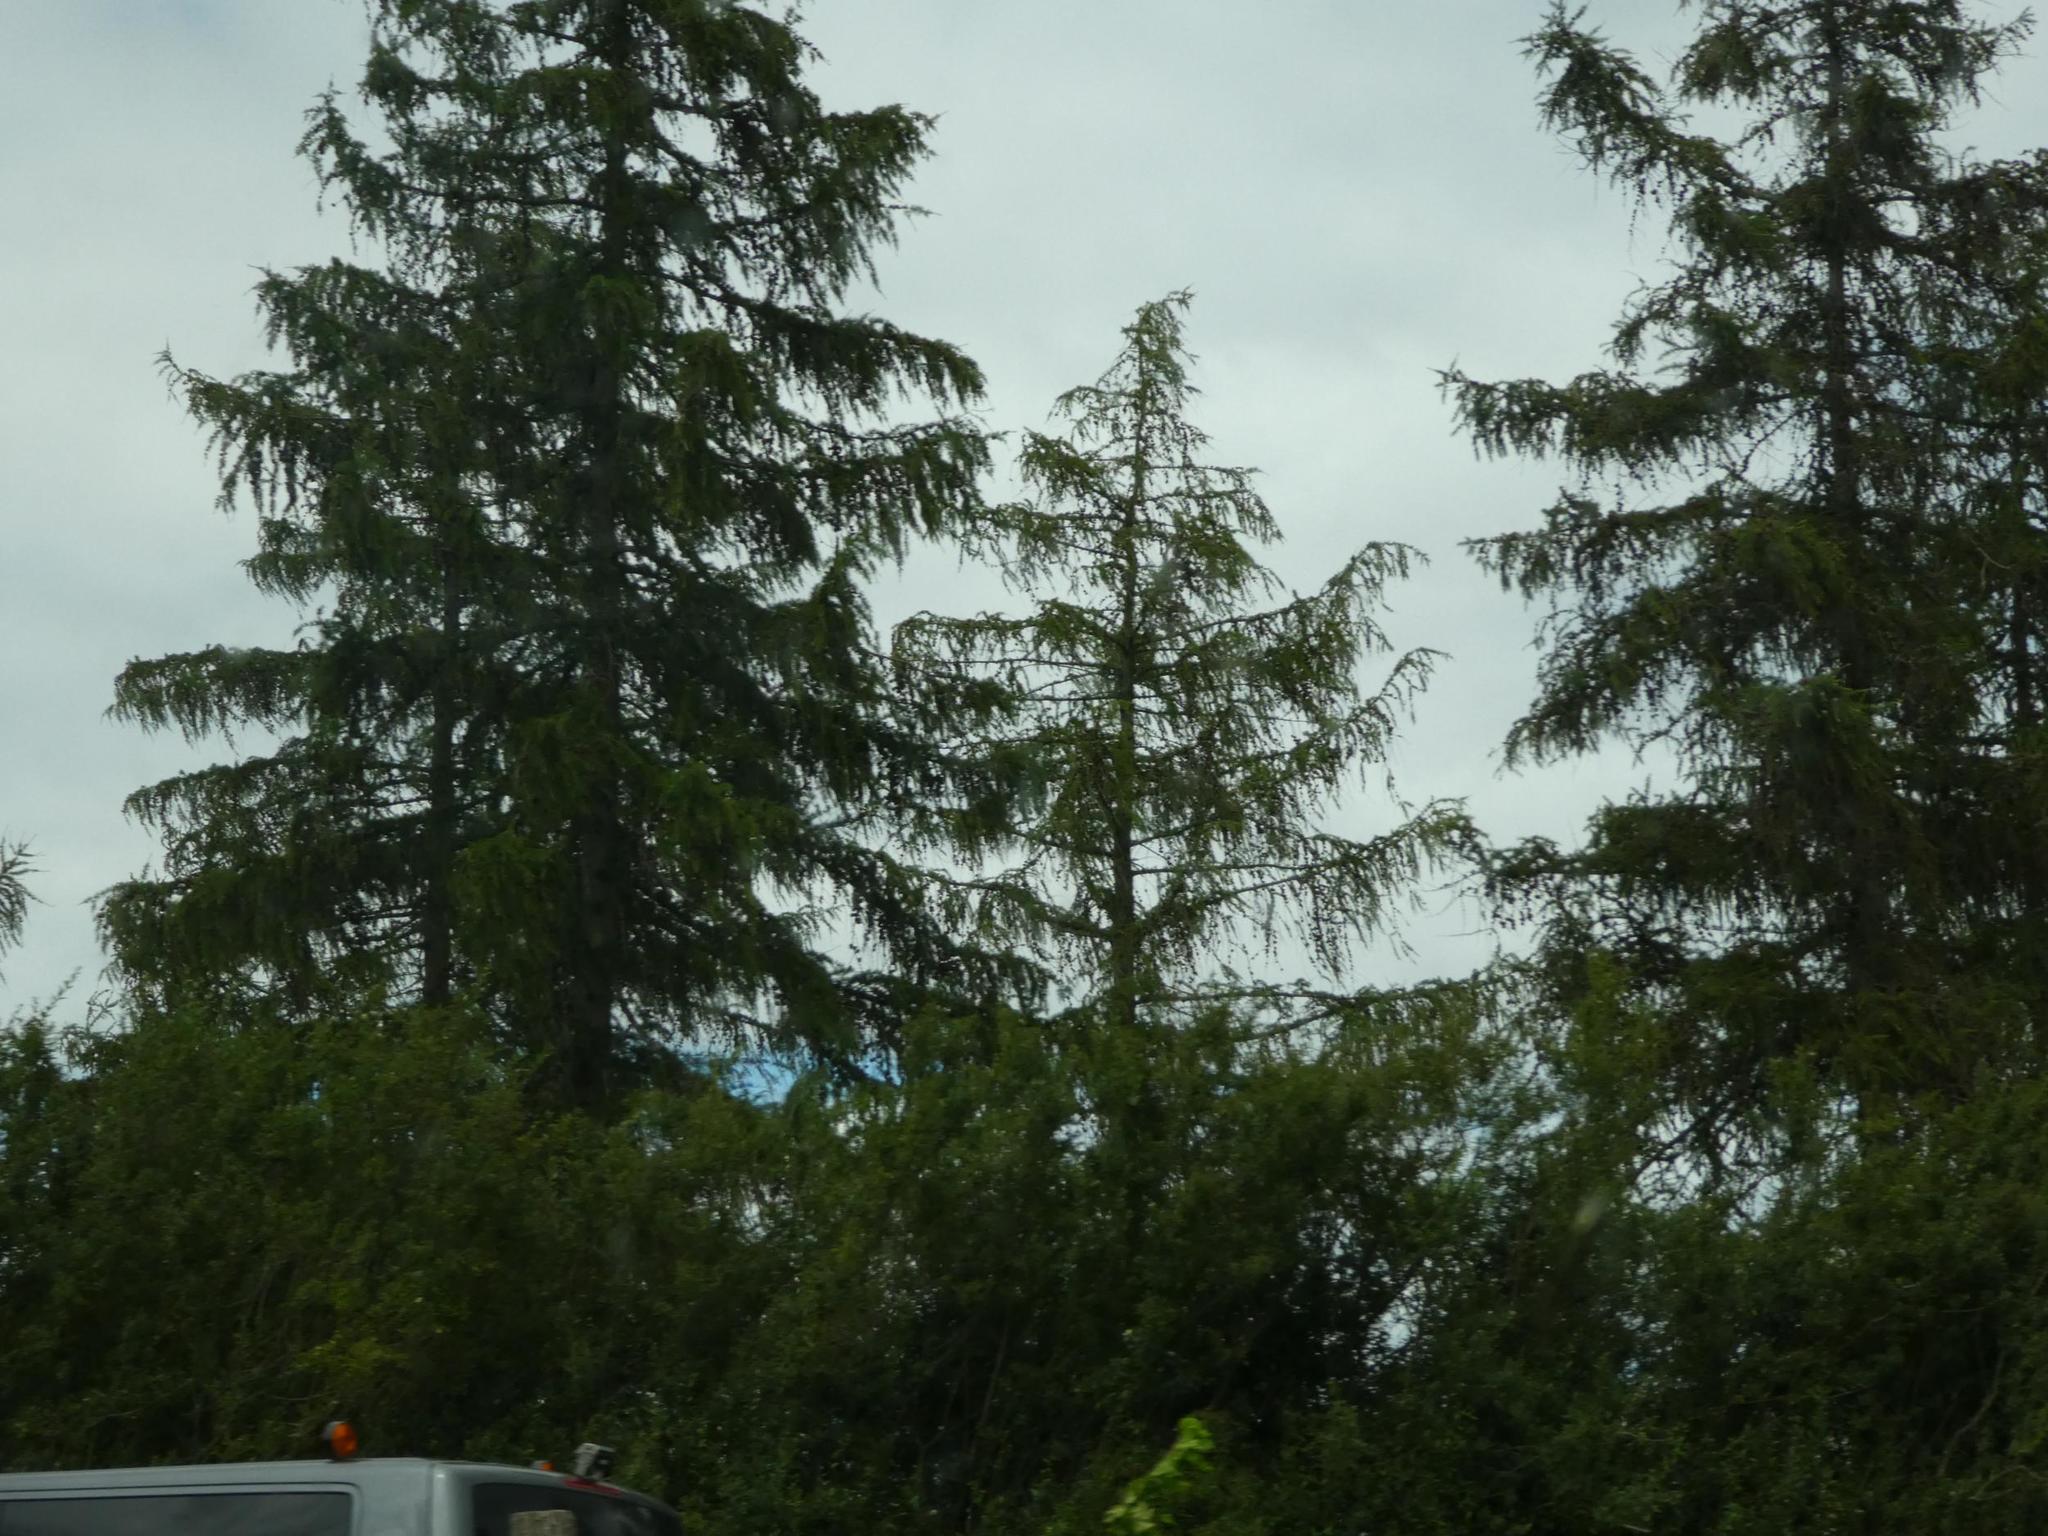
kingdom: Plantae
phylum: Tracheophyta
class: Pinopsida
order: Pinales
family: Pinaceae
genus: Larix
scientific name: Larix decidua
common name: European larch
